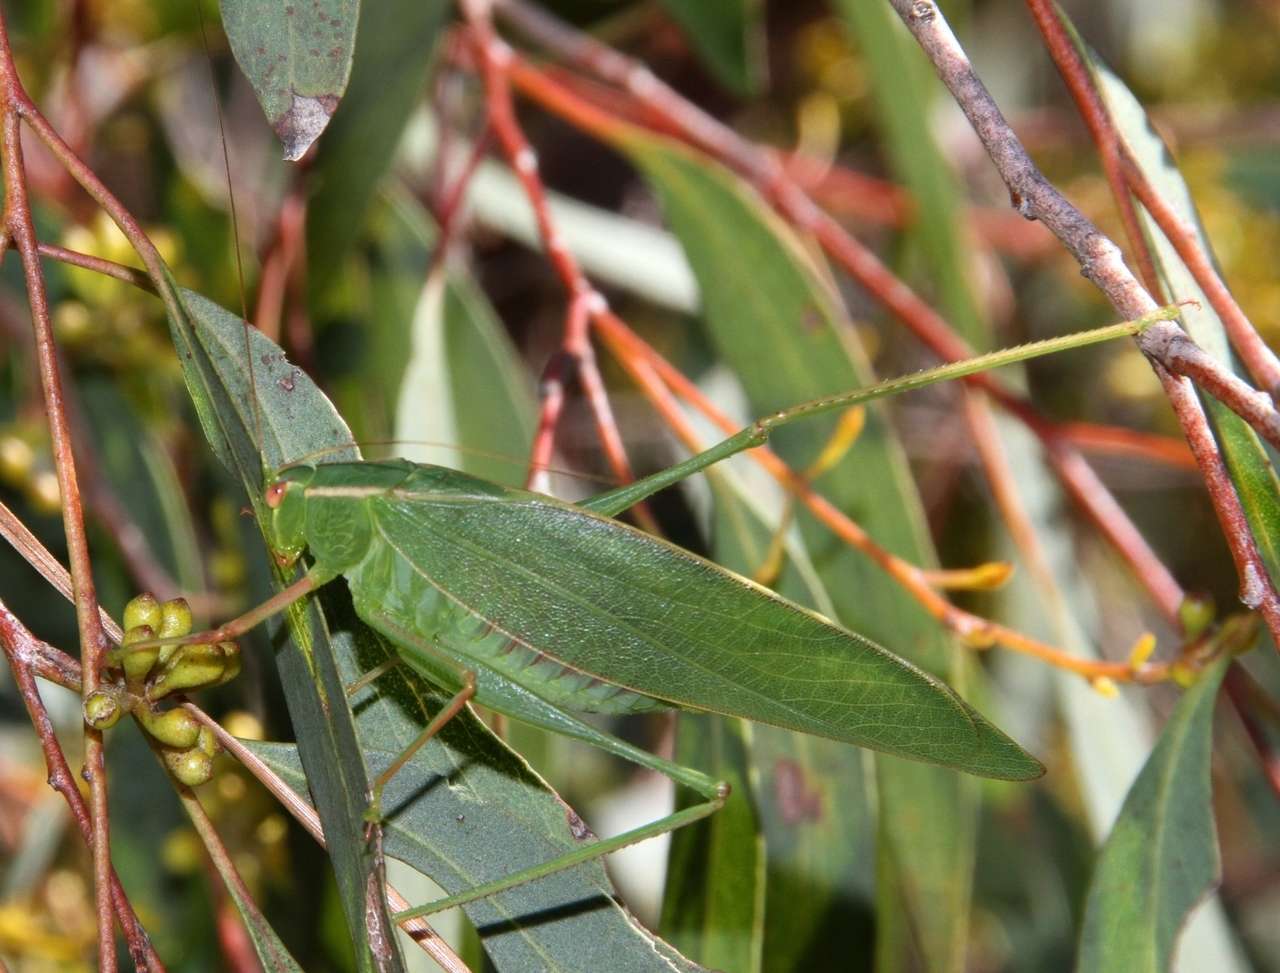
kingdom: Animalia
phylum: Arthropoda
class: Insecta
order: Orthoptera
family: Tettigoniidae
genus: Caedicia
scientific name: Caedicia simplex
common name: Common garden katydid
